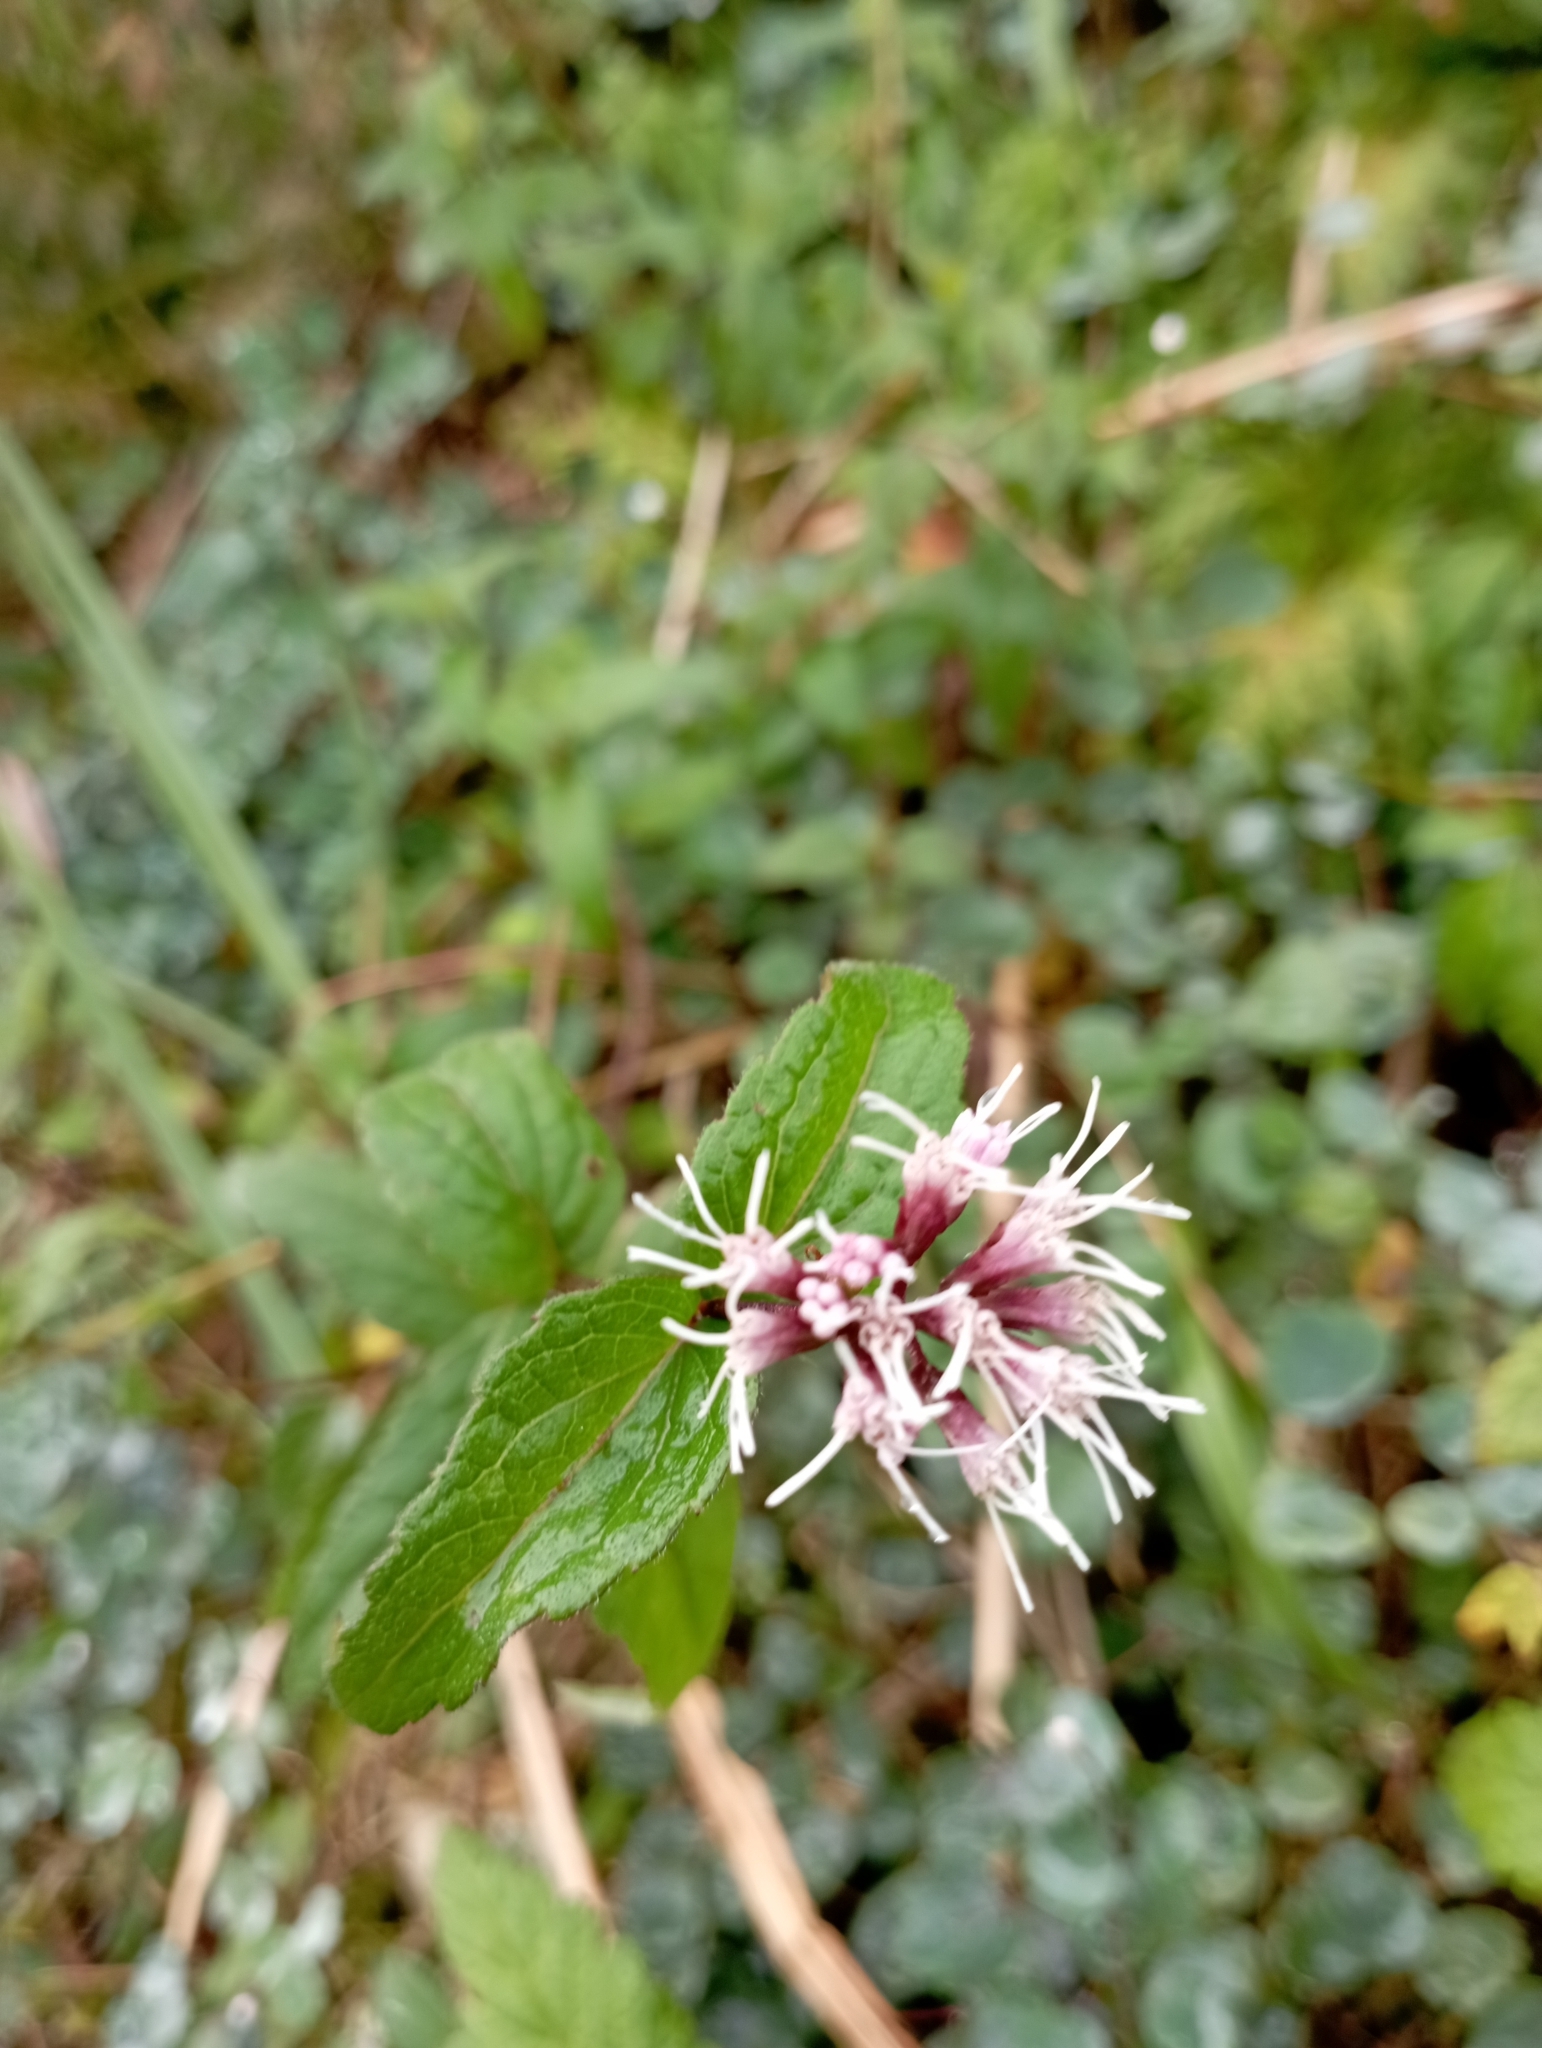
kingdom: Plantae
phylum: Tracheophyta
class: Magnoliopsida
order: Asterales
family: Asteraceae
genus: Eupatorium
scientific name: Eupatorium shimadae
